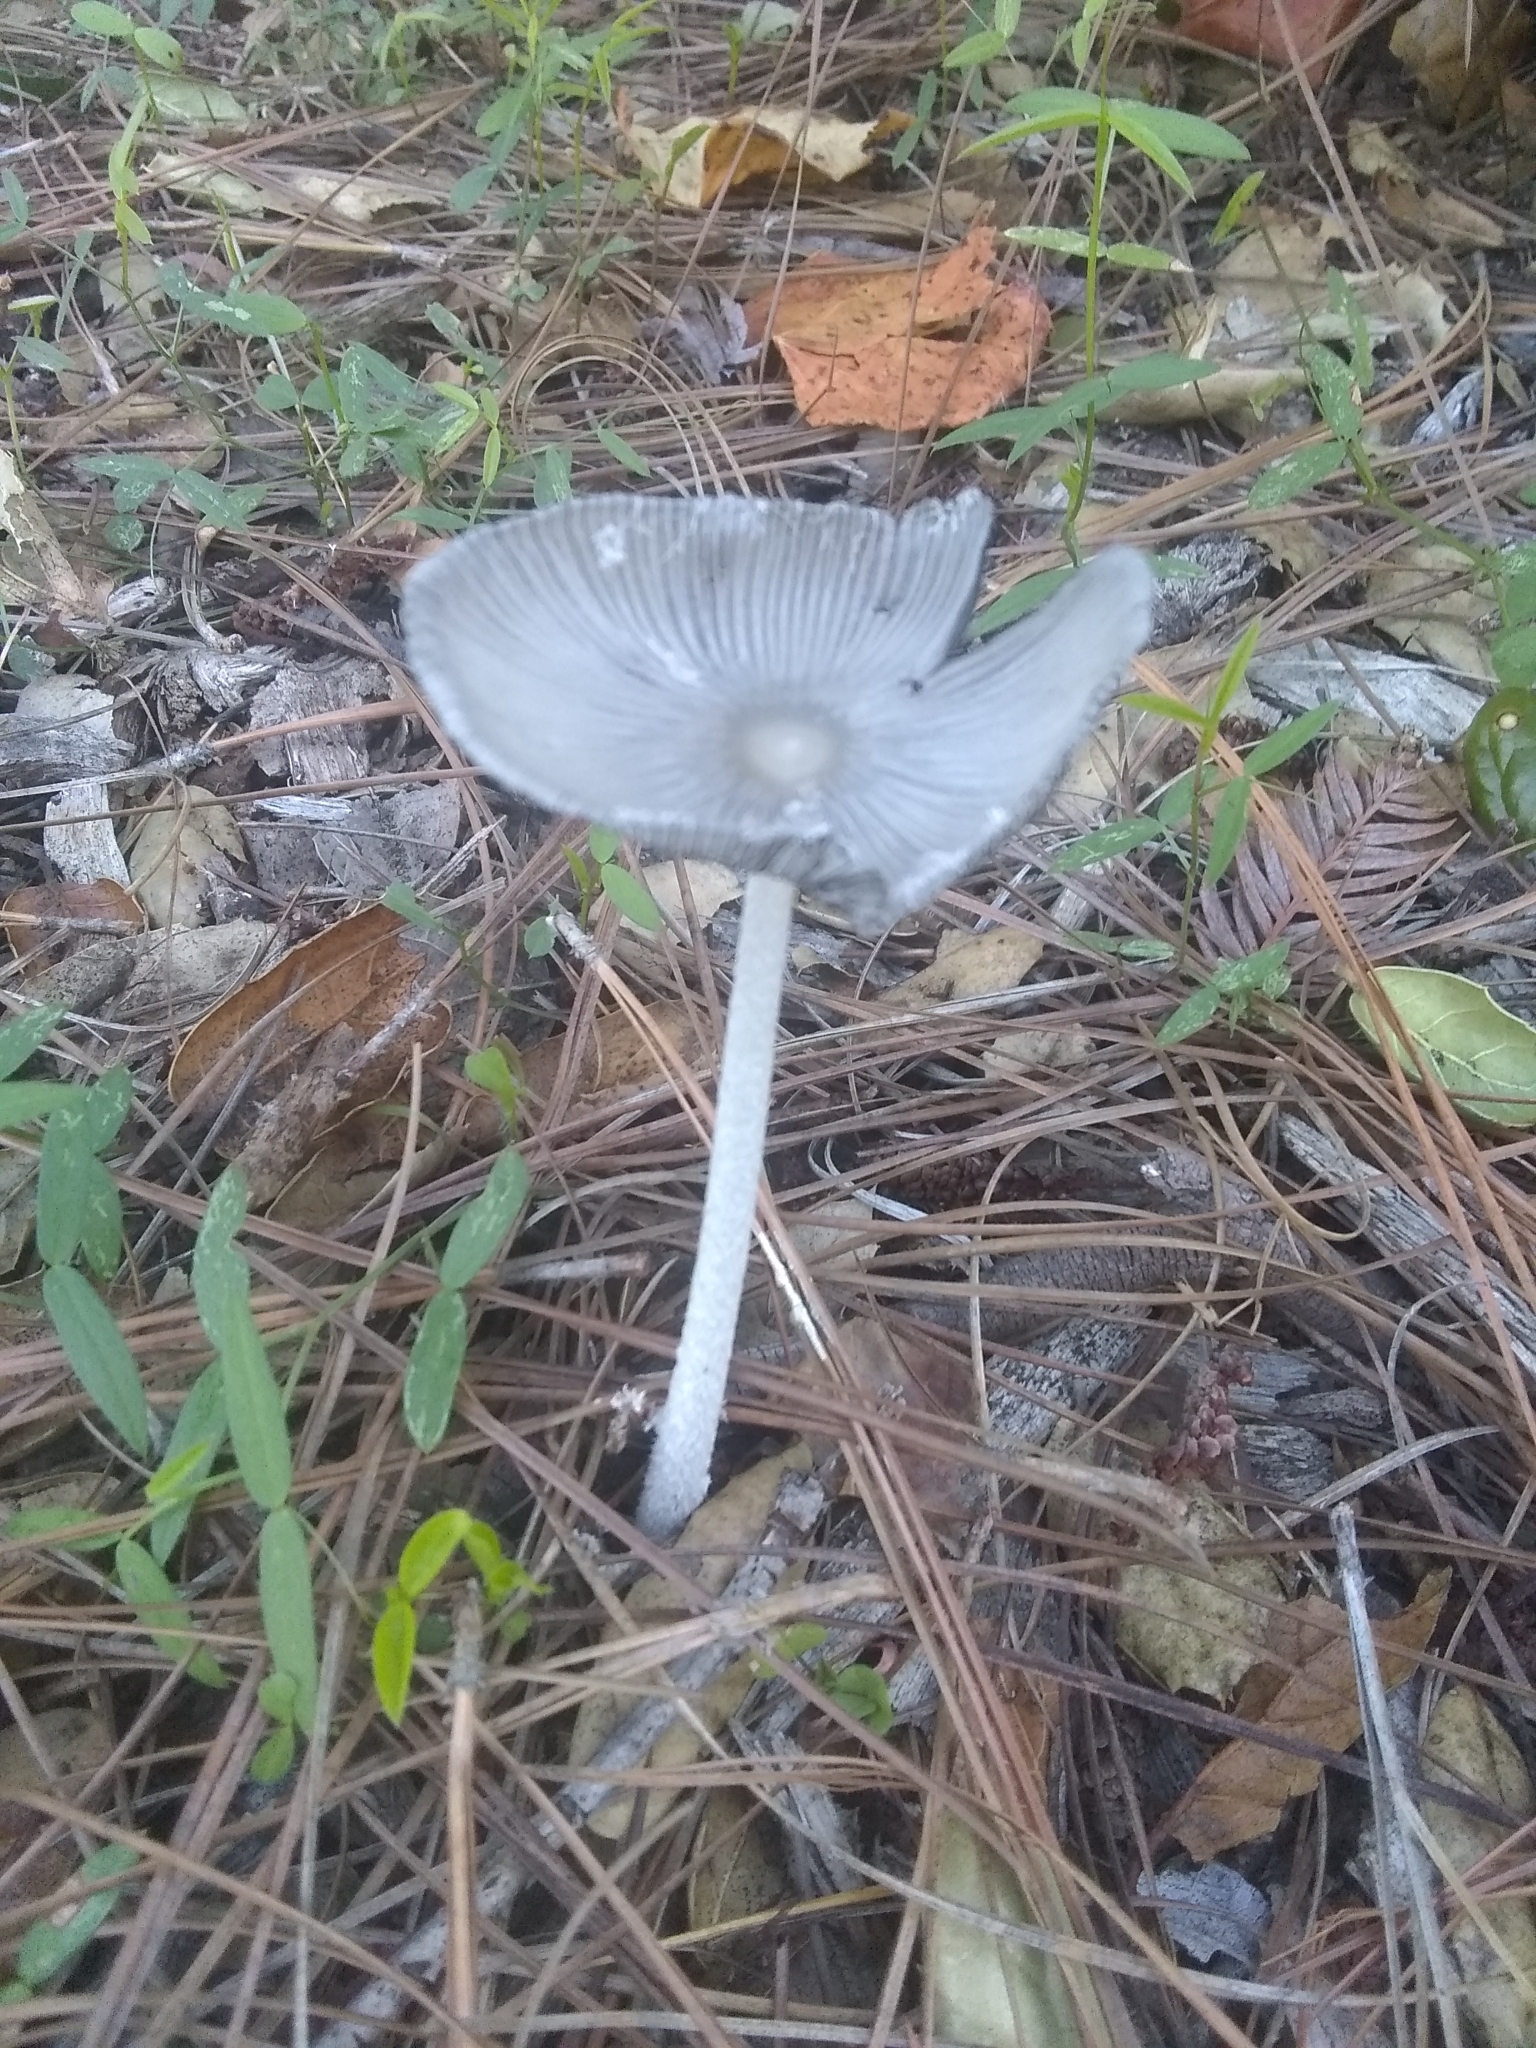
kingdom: Fungi
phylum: Basidiomycota
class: Agaricomycetes
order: Agaricales
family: Psathyrellaceae
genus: Coprinopsis
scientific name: Coprinopsis lagopus
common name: Hare'sfoot inkcap
